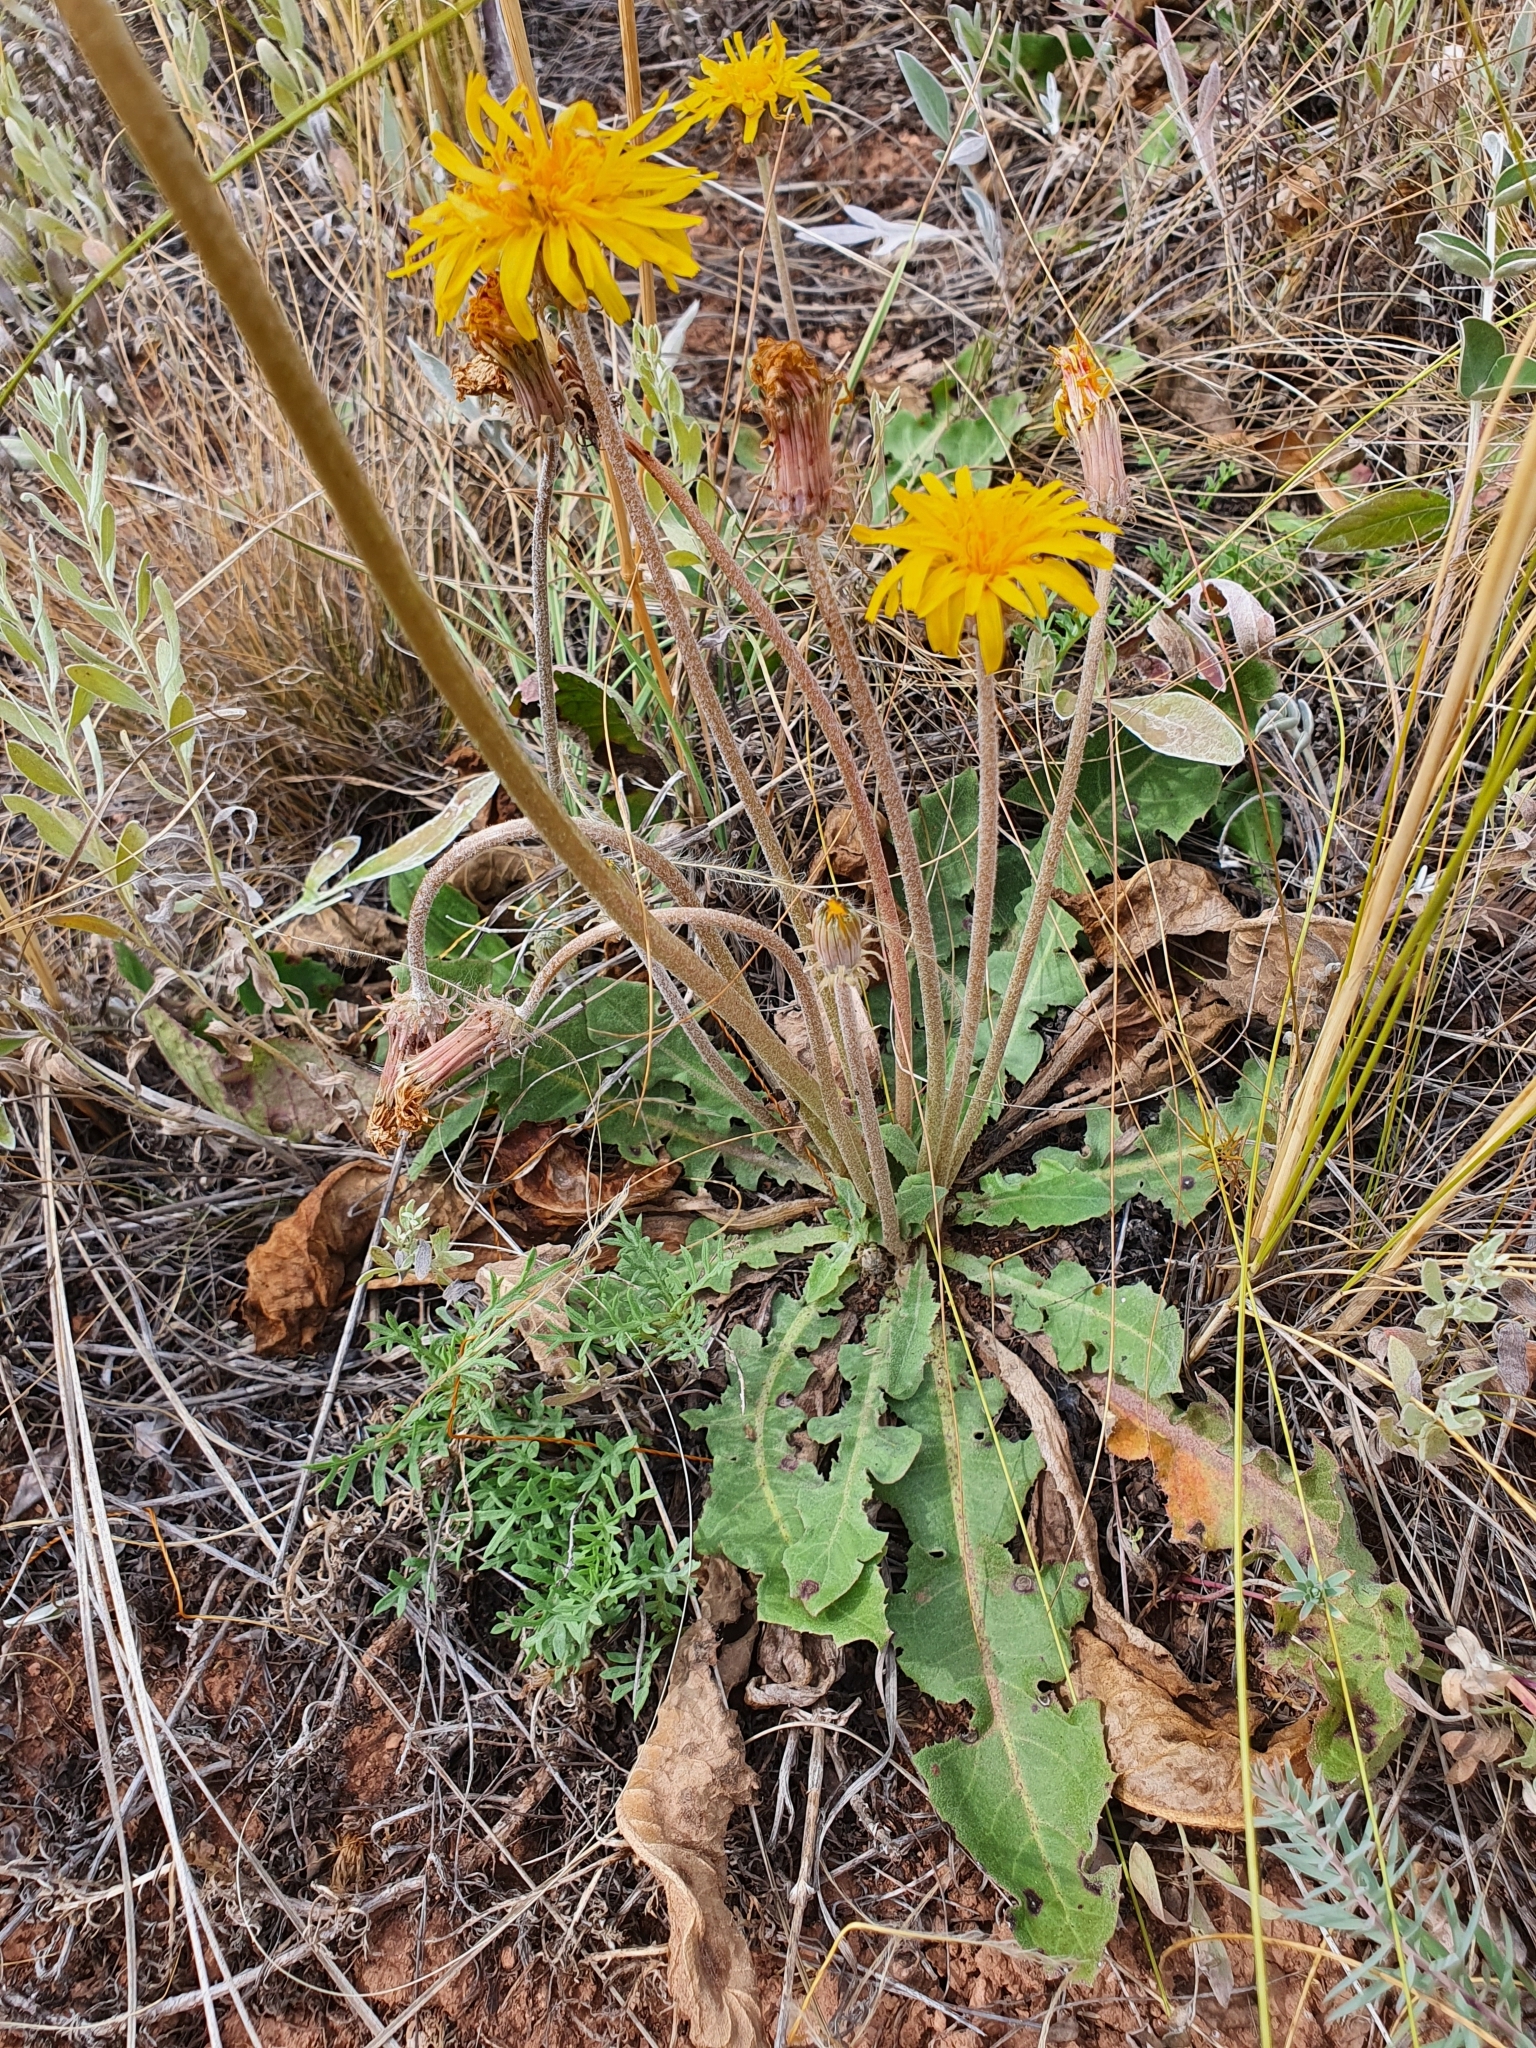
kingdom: Plantae
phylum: Tracheophyta
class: Magnoliopsida
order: Asterales
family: Asteraceae
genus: Taraxacum
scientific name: Taraxacum serotinum
